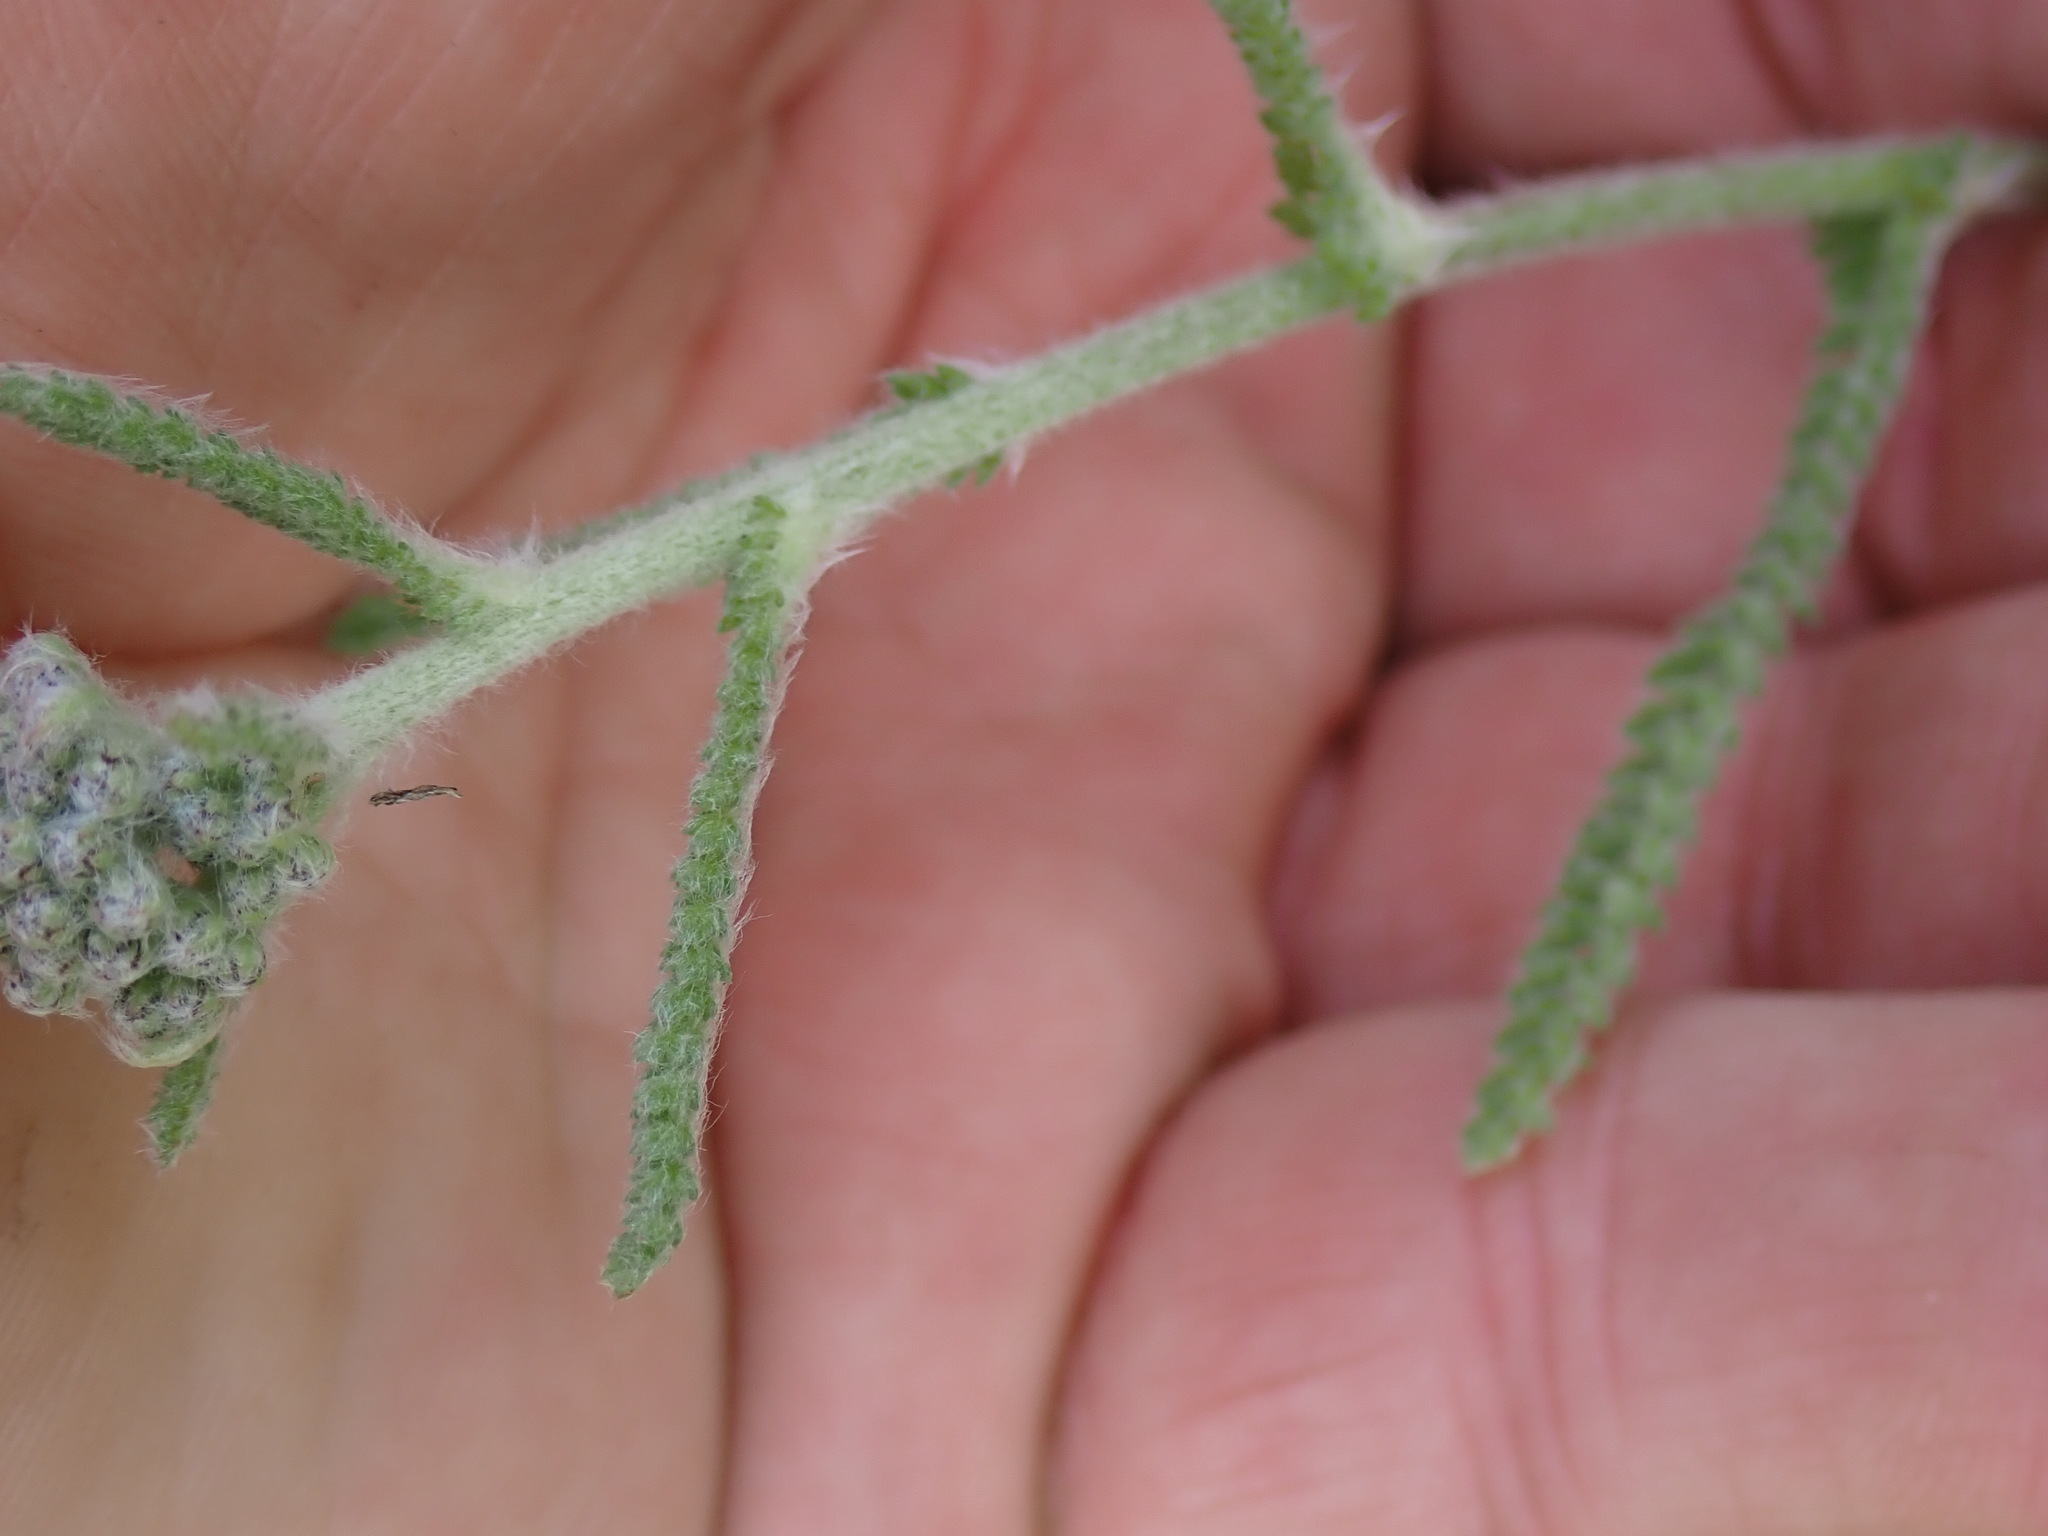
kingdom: Plantae
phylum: Tracheophyta
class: Magnoliopsida
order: Asterales
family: Asteraceae
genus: Achillea
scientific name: Achillea millefolium
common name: Yarrow
